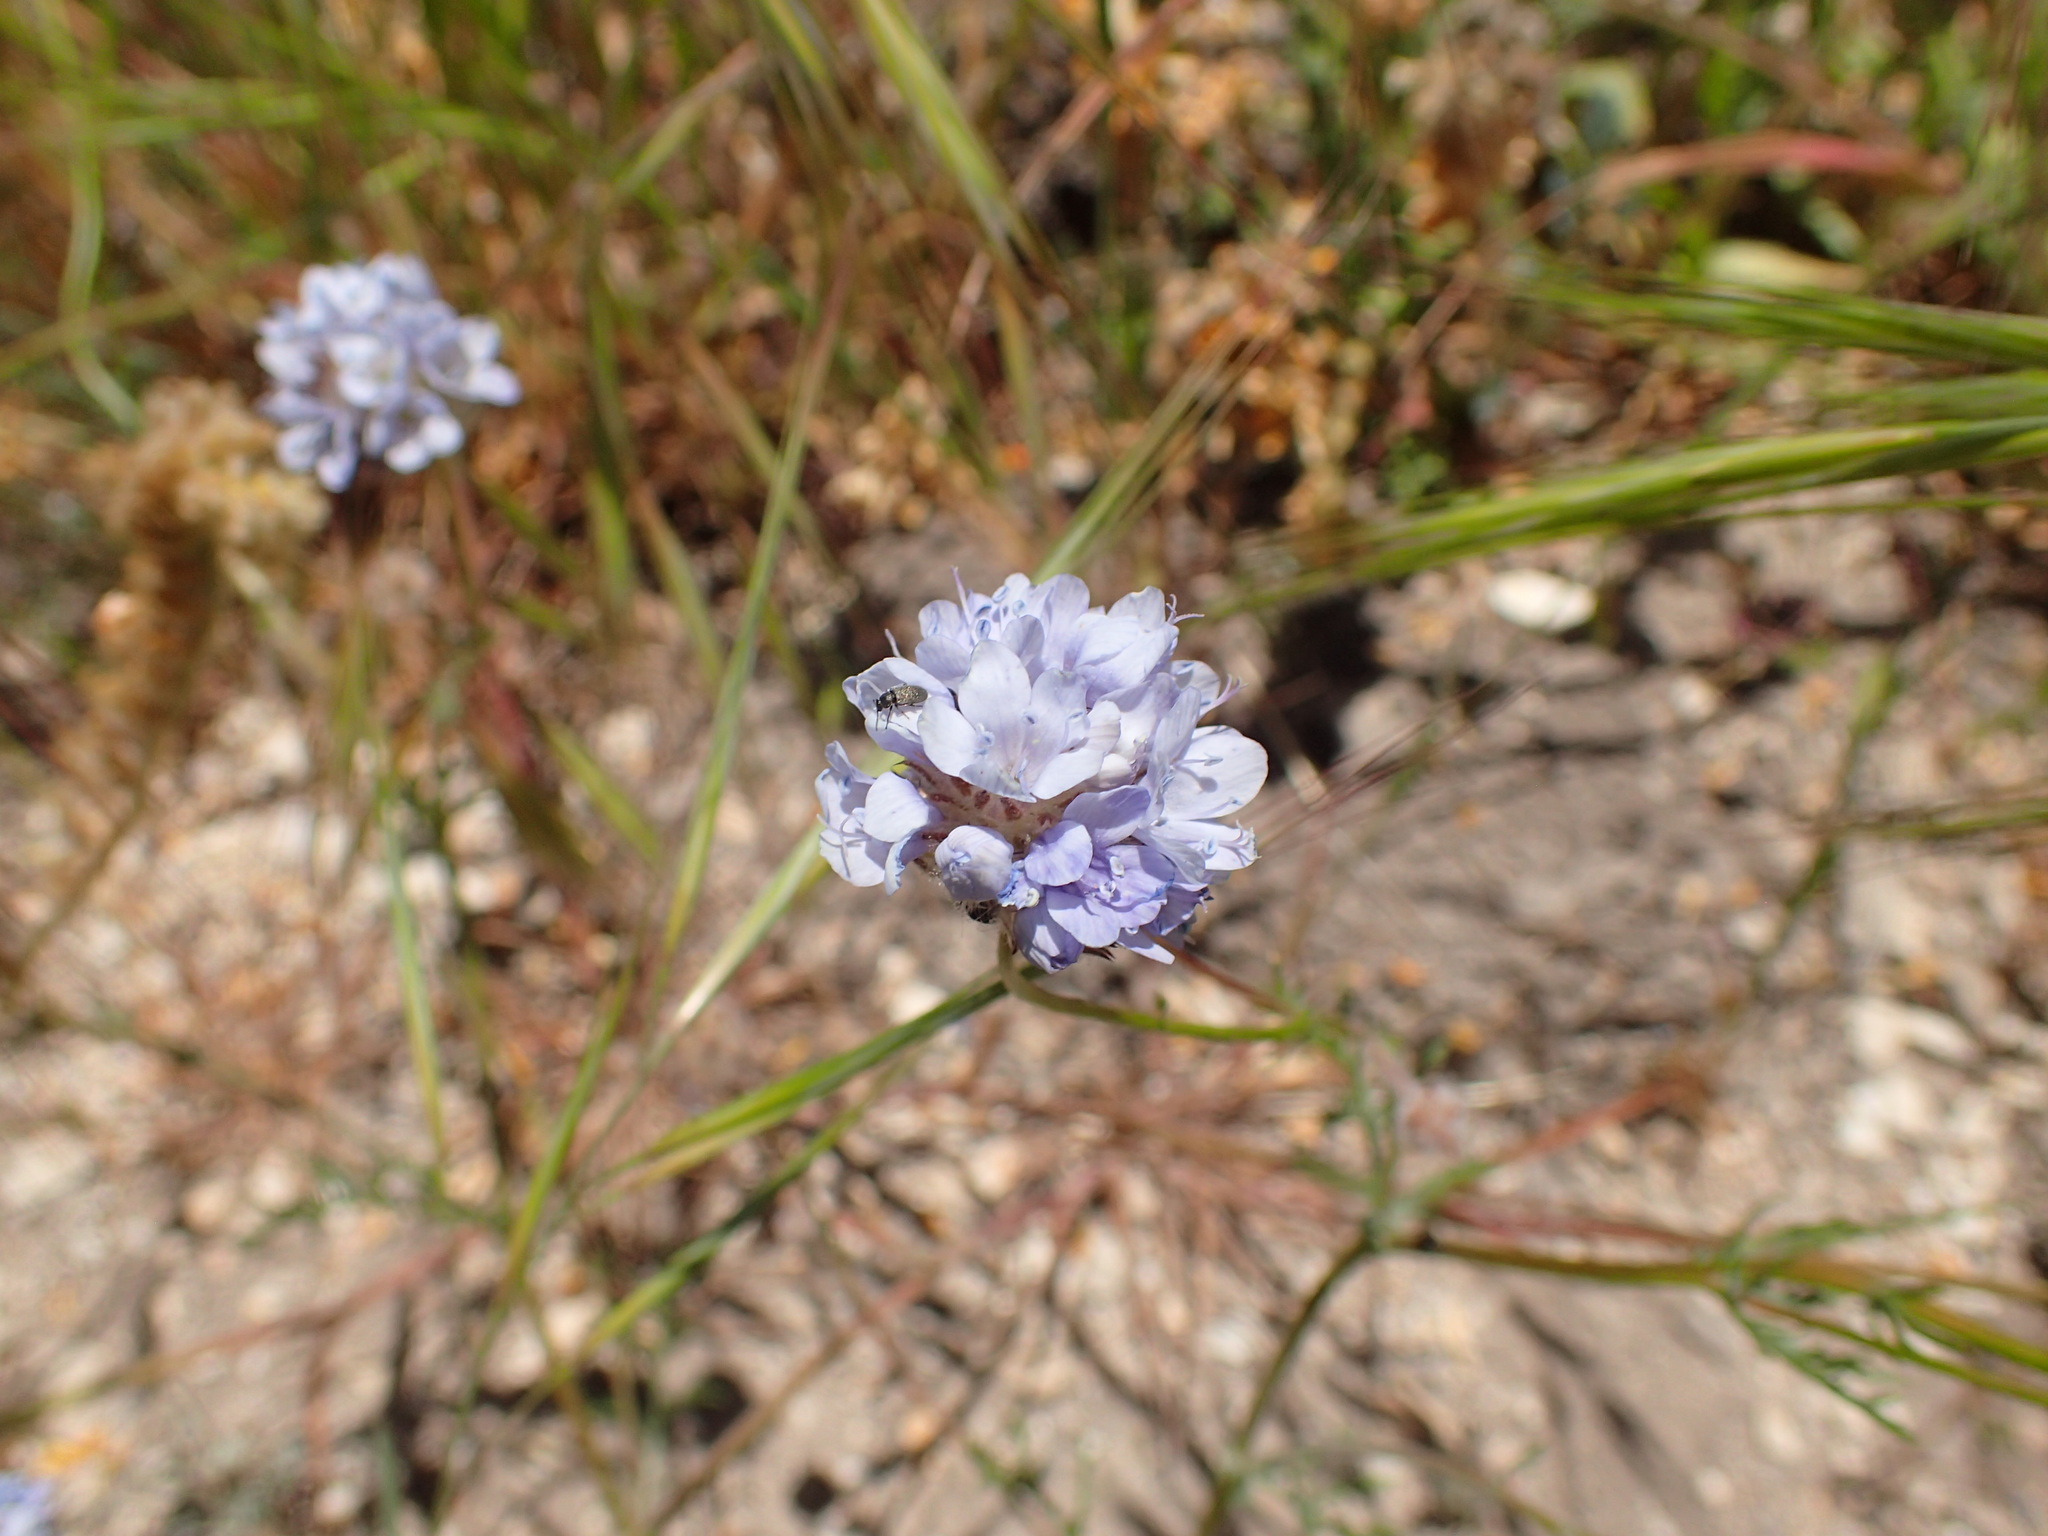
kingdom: Plantae
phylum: Tracheophyta
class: Magnoliopsida
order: Ericales
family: Polemoniaceae
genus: Gilia
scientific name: Gilia capitata
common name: Bluehead gilia
